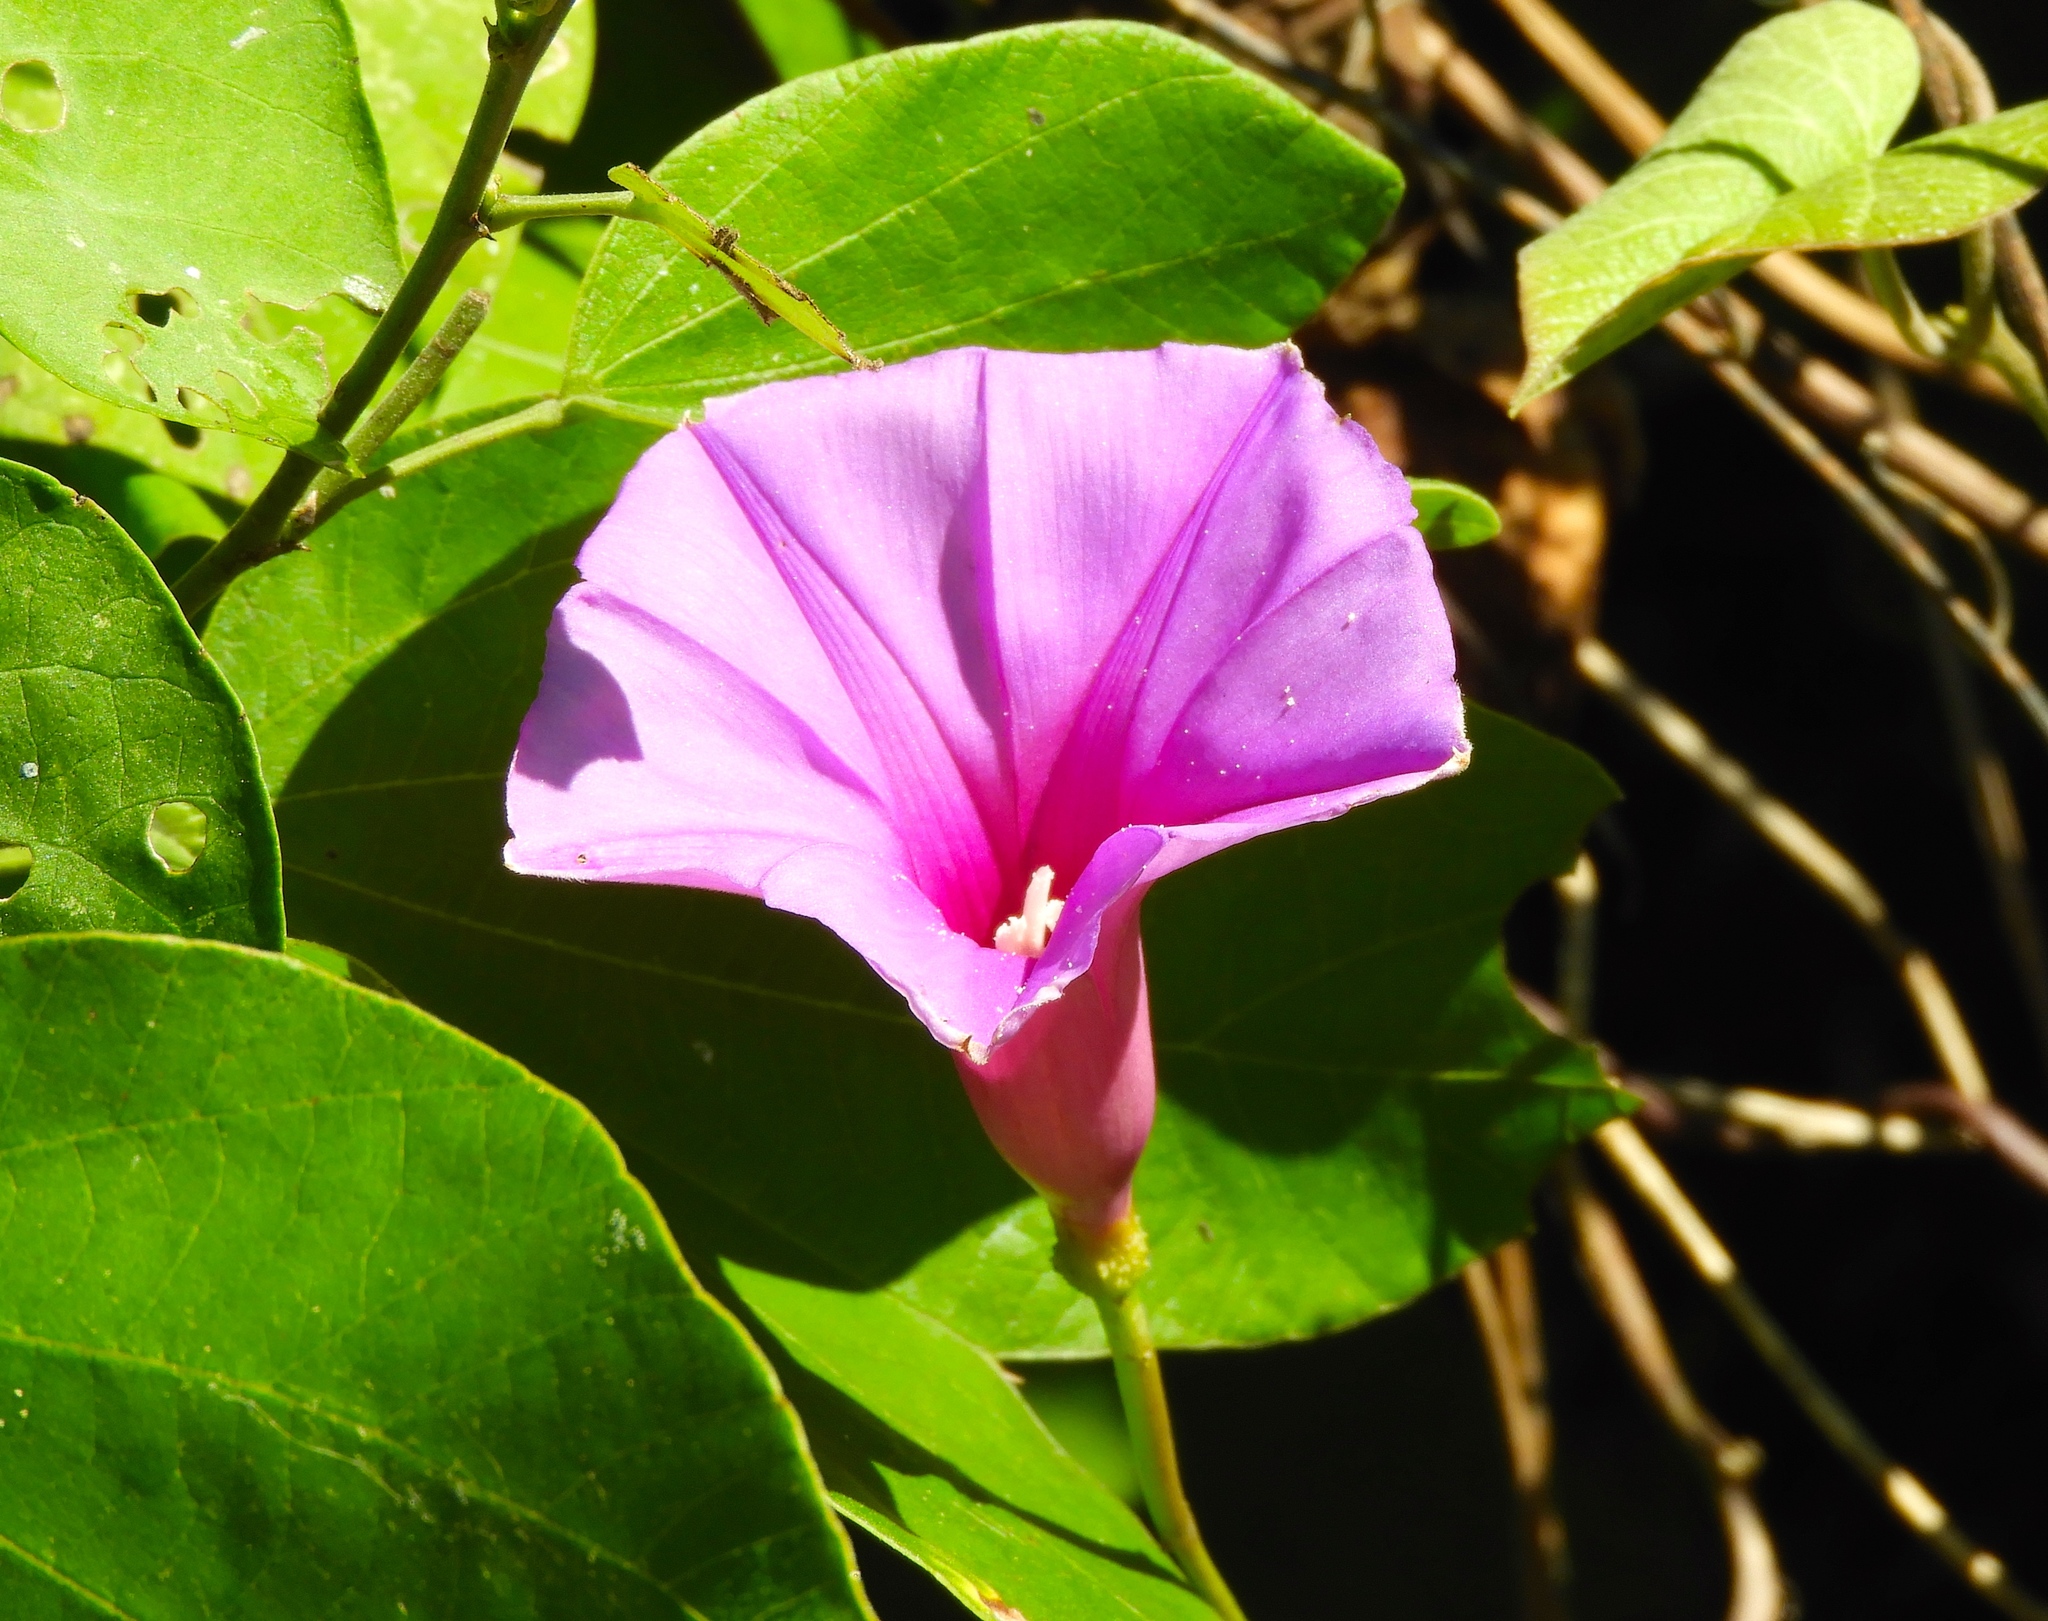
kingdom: Plantae
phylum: Tracheophyta
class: Magnoliopsida
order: Solanales
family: Convolvulaceae
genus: Ipomoea
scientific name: Ipomoea pedicellaris
